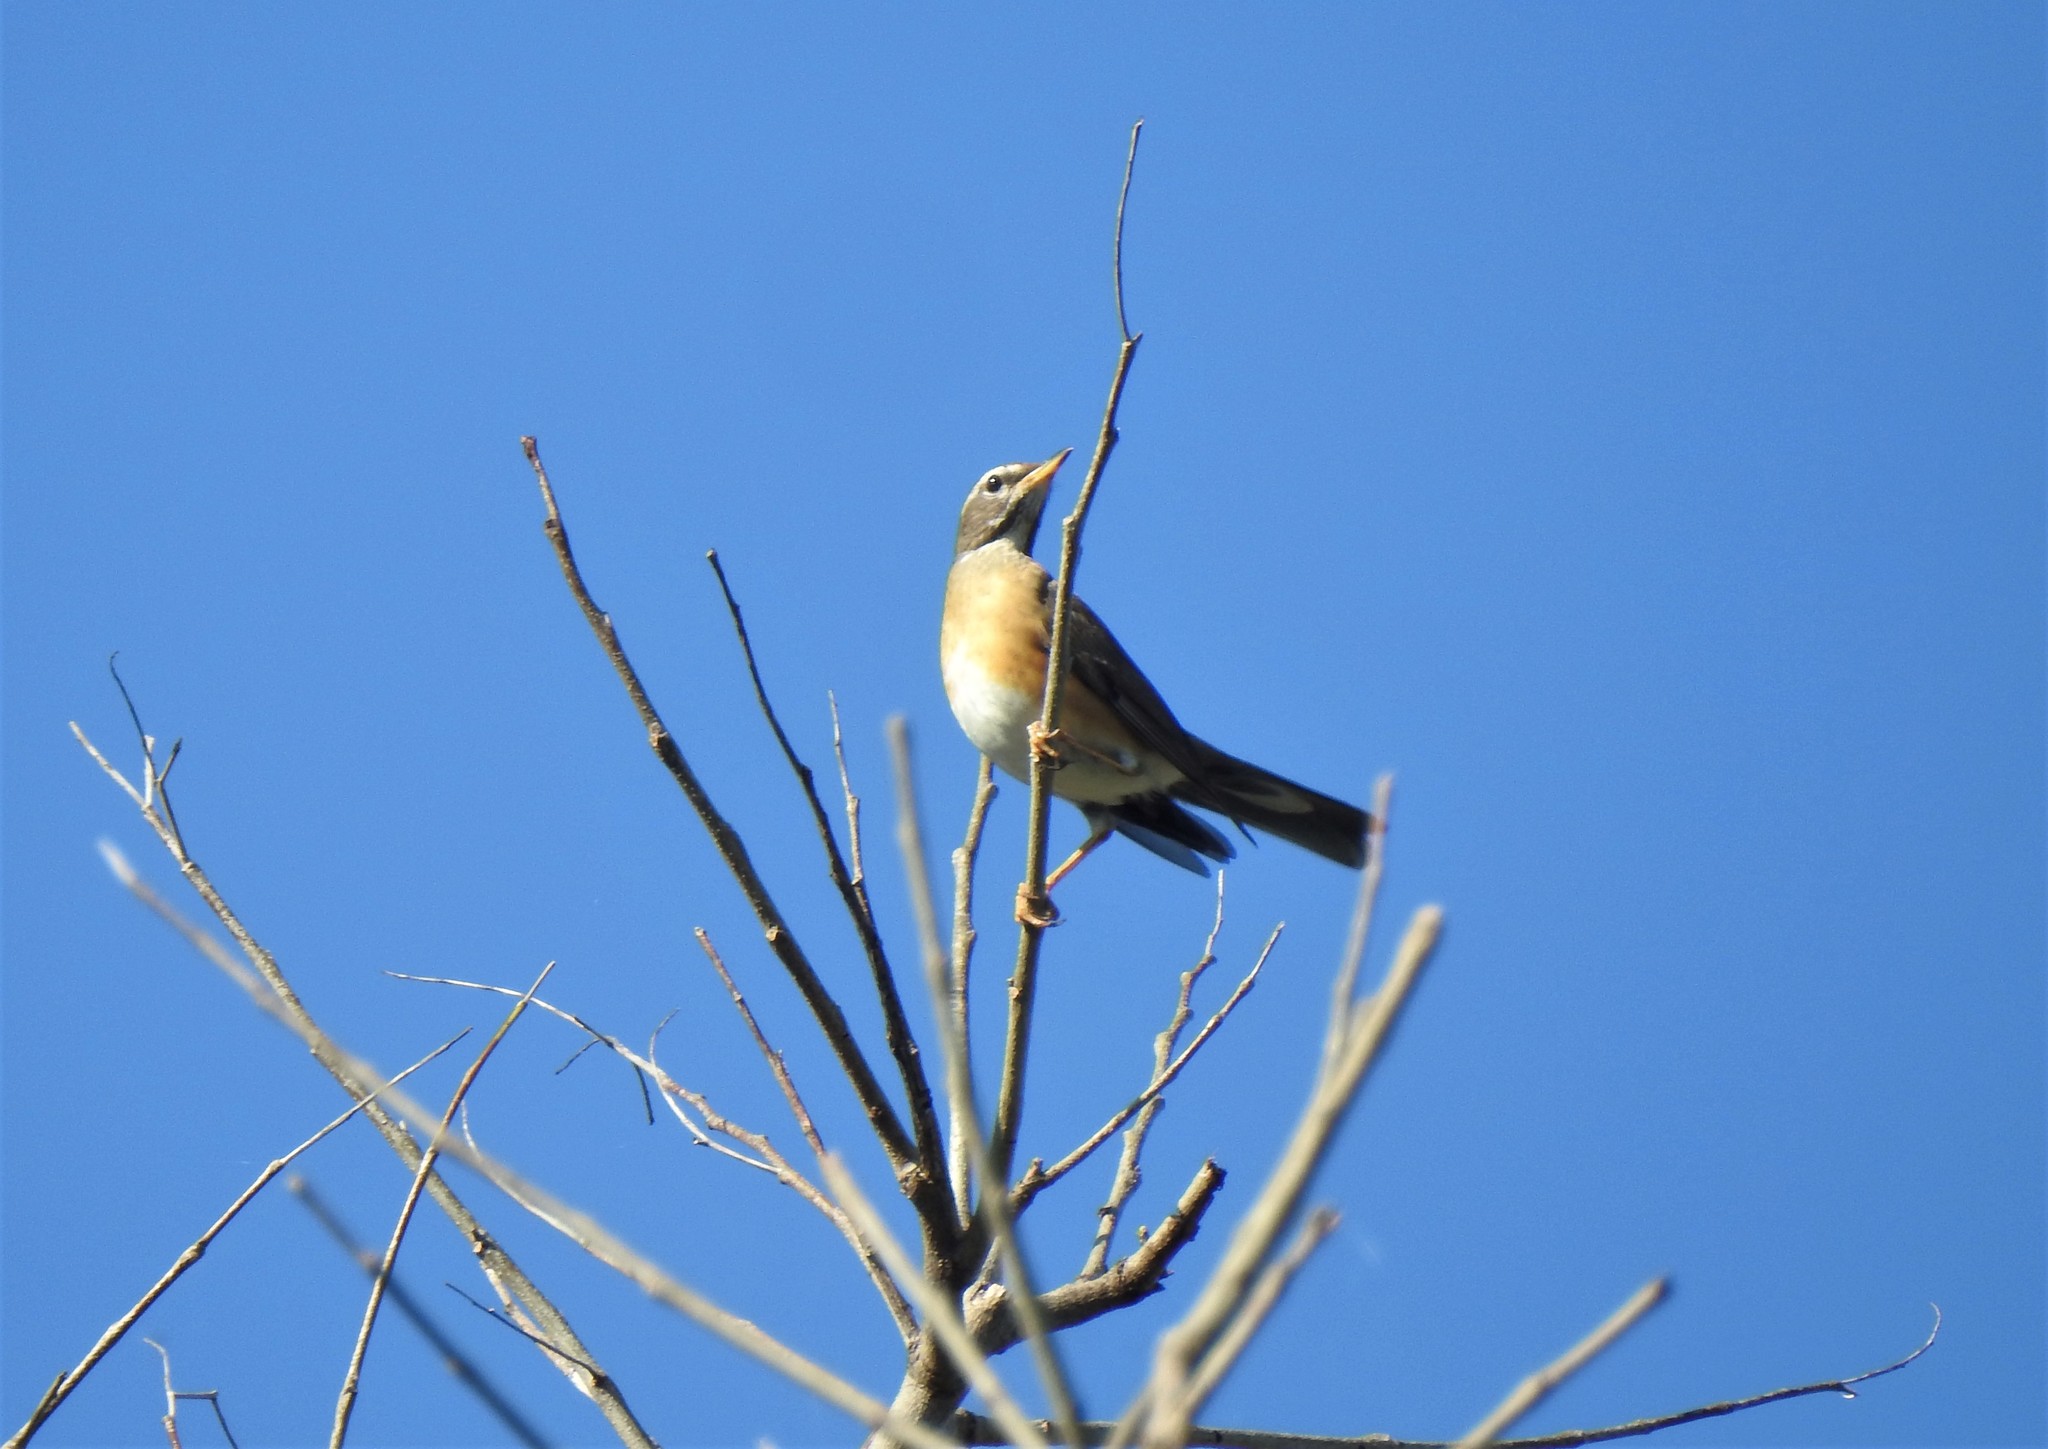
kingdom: Animalia
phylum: Chordata
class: Aves
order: Passeriformes
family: Turdidae
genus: Turdus
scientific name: Turdus obscurus
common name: Eyebrowed thrush
